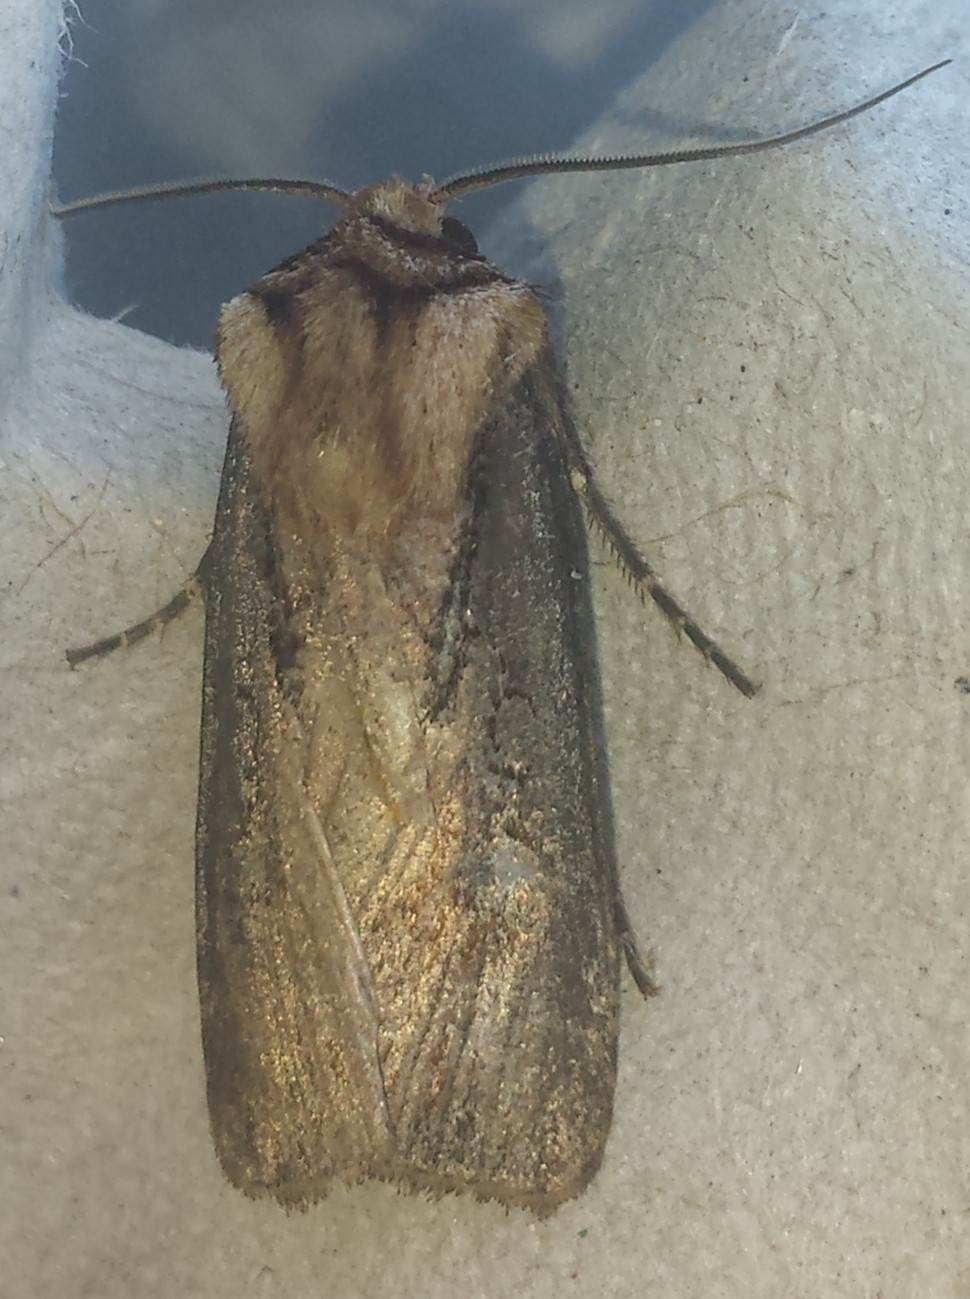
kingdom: Animalia
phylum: Arthropoda
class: Insecta
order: Lepidoptera
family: Noctuidae
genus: Agrotis
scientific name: Agrotis volubilis
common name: Voluble dart
